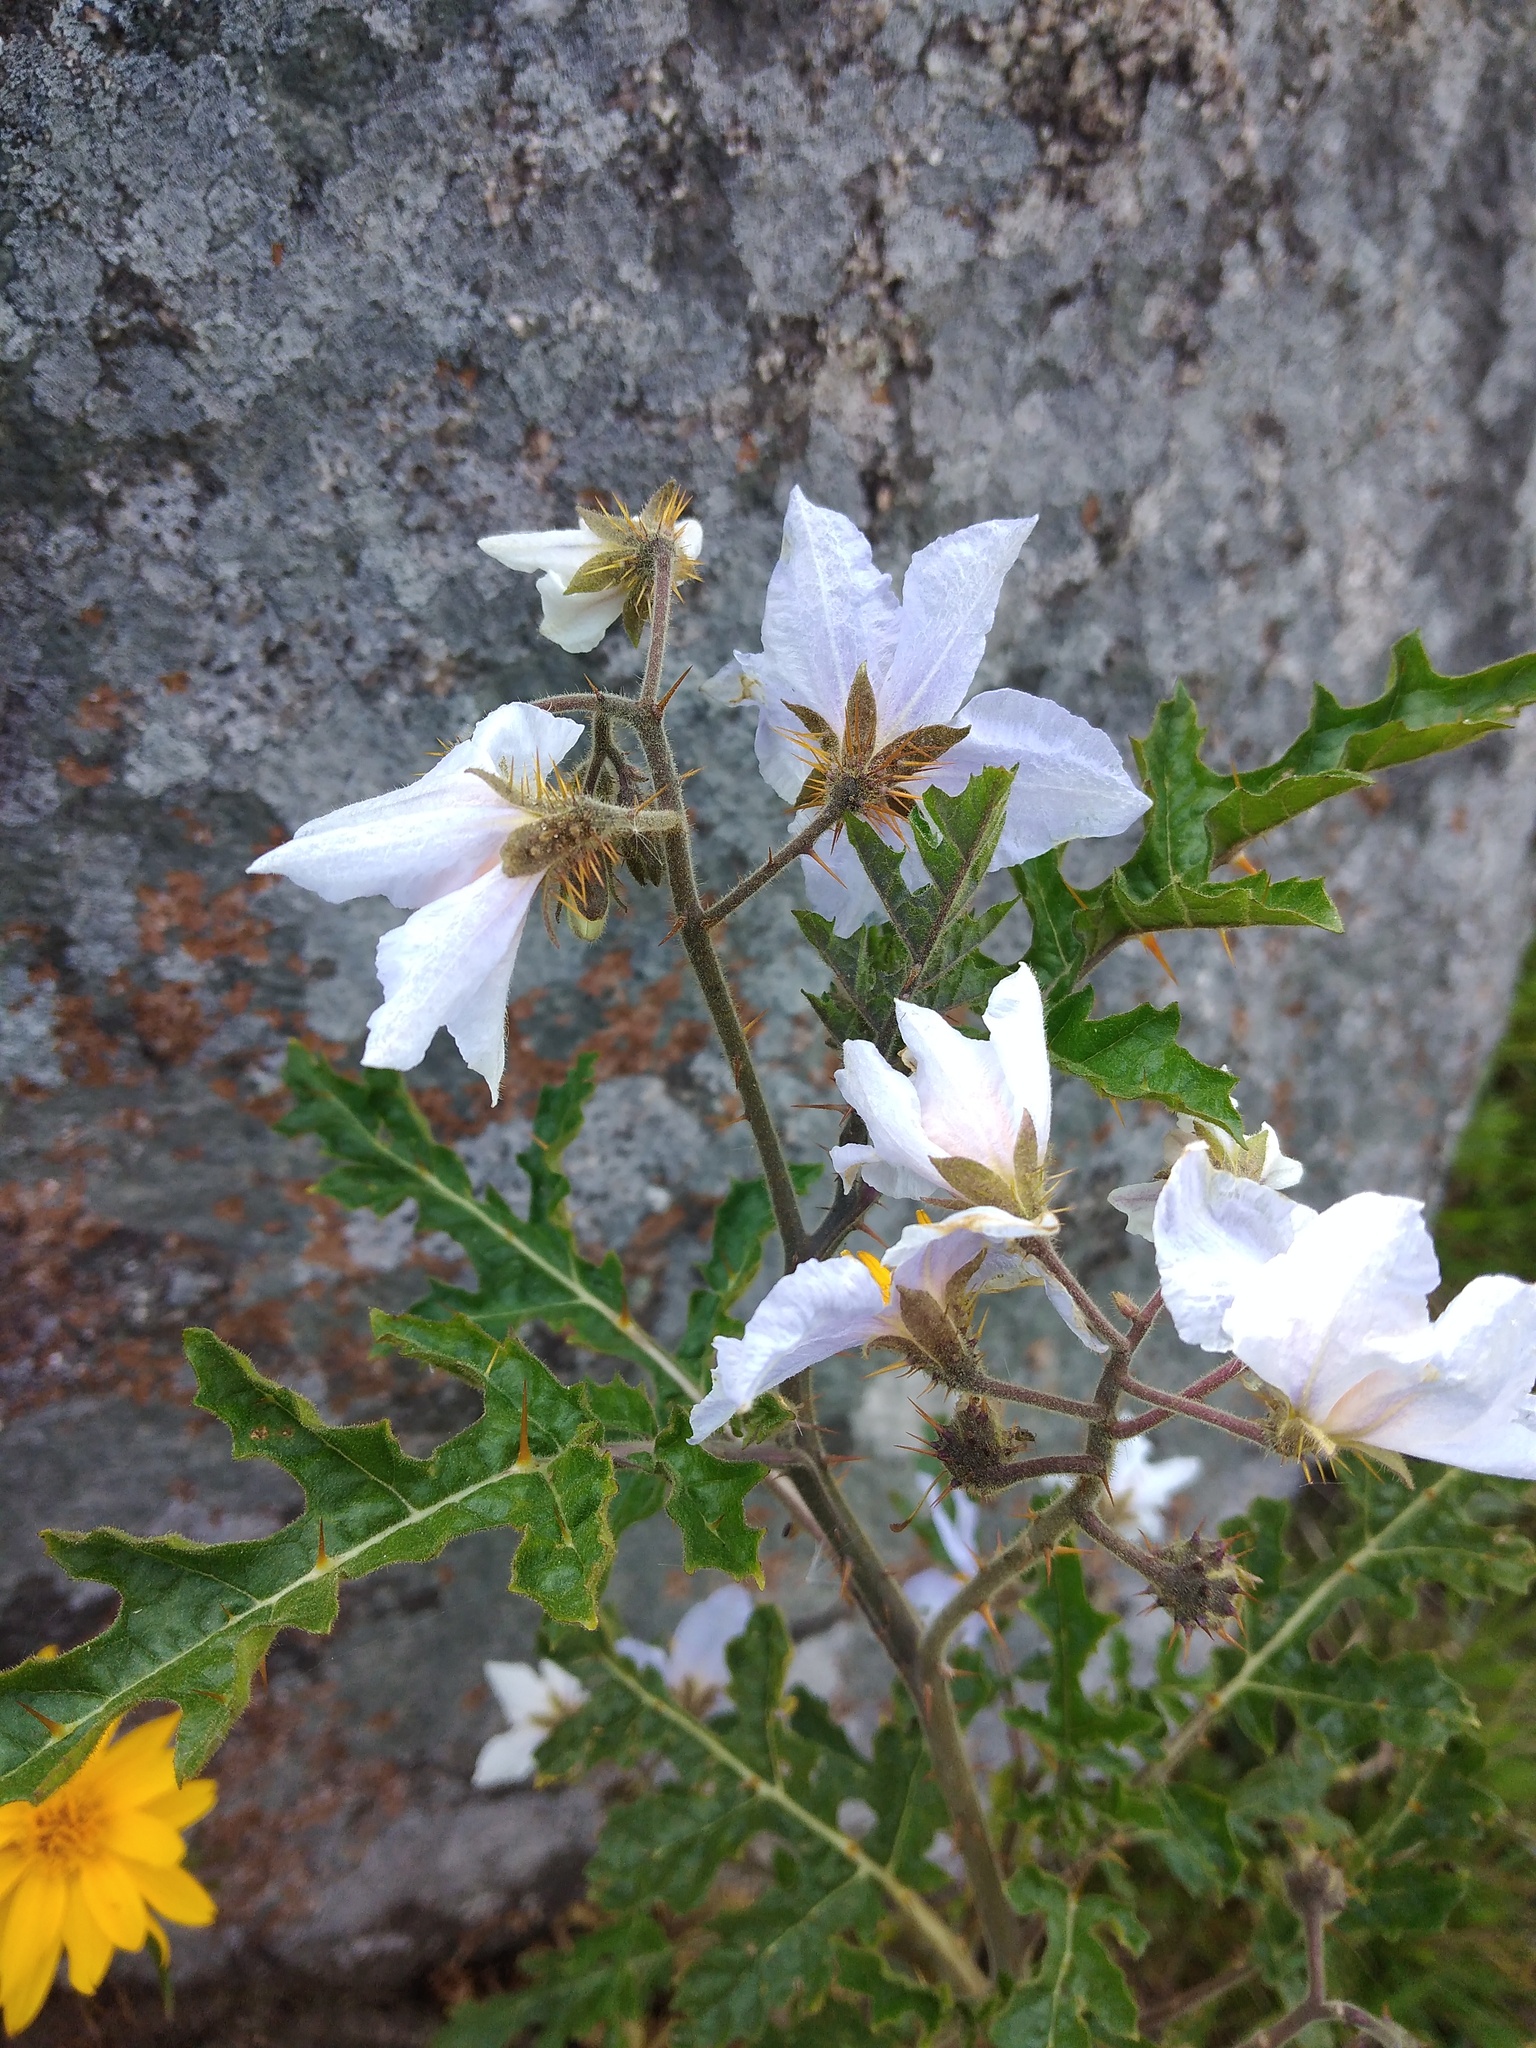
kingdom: Plantae
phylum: Tracheophyta
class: Magnoliopsida
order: Solanales
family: Solanaceae
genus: Solanum
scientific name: Solanum sisymbriifolium
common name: Red buffalo-bur
